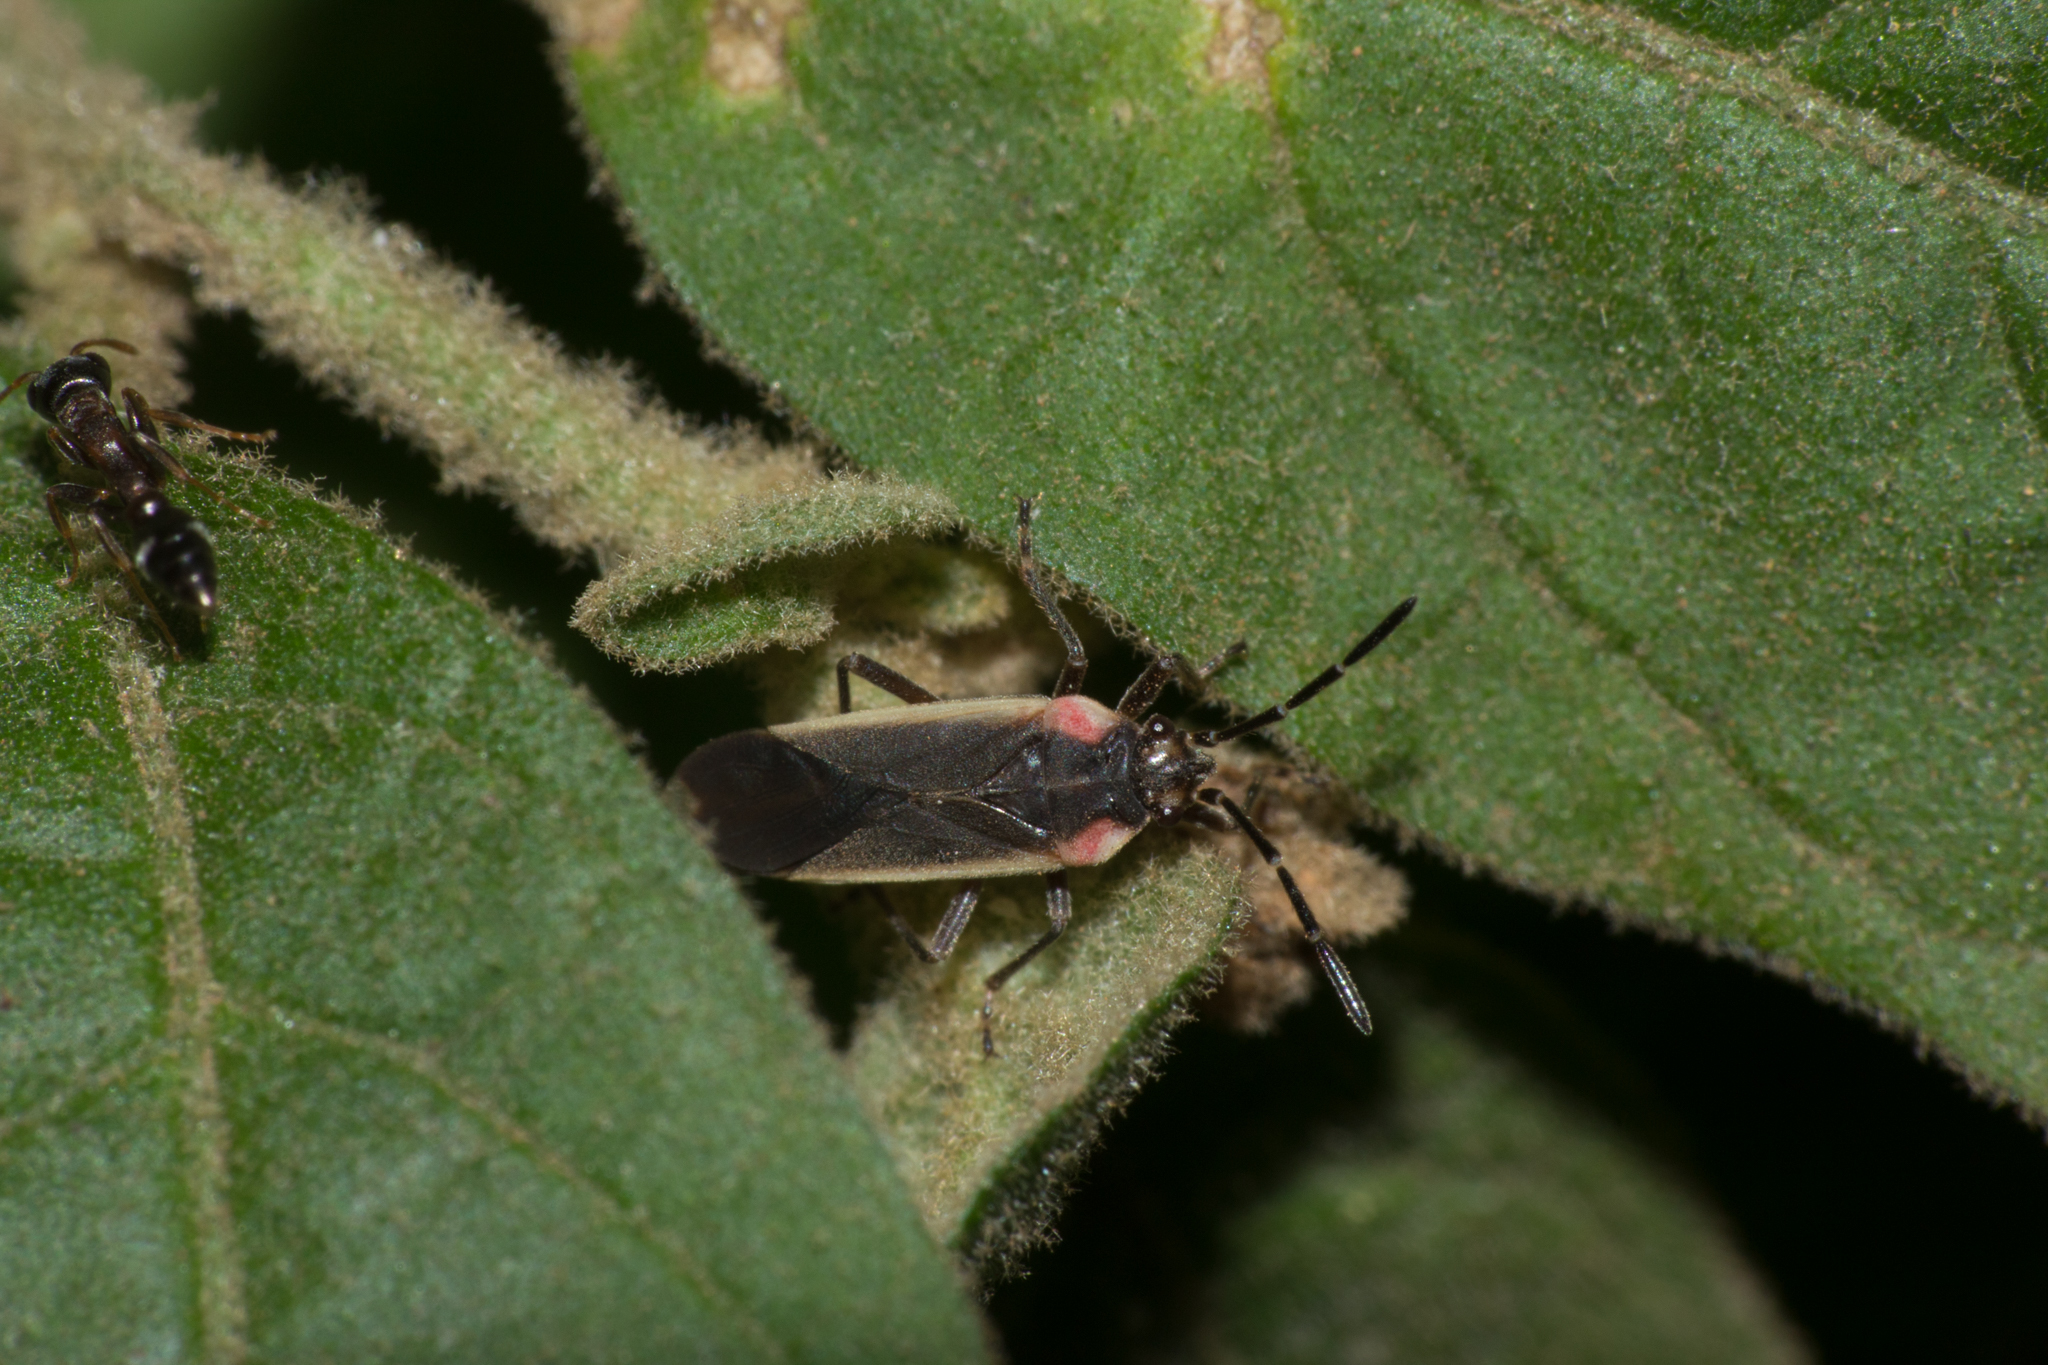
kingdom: Animalia
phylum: Arthropoda
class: Insecta
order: Hemiptera
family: Lygaeidae
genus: Acroleucus
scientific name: Acroleucus coxalis
